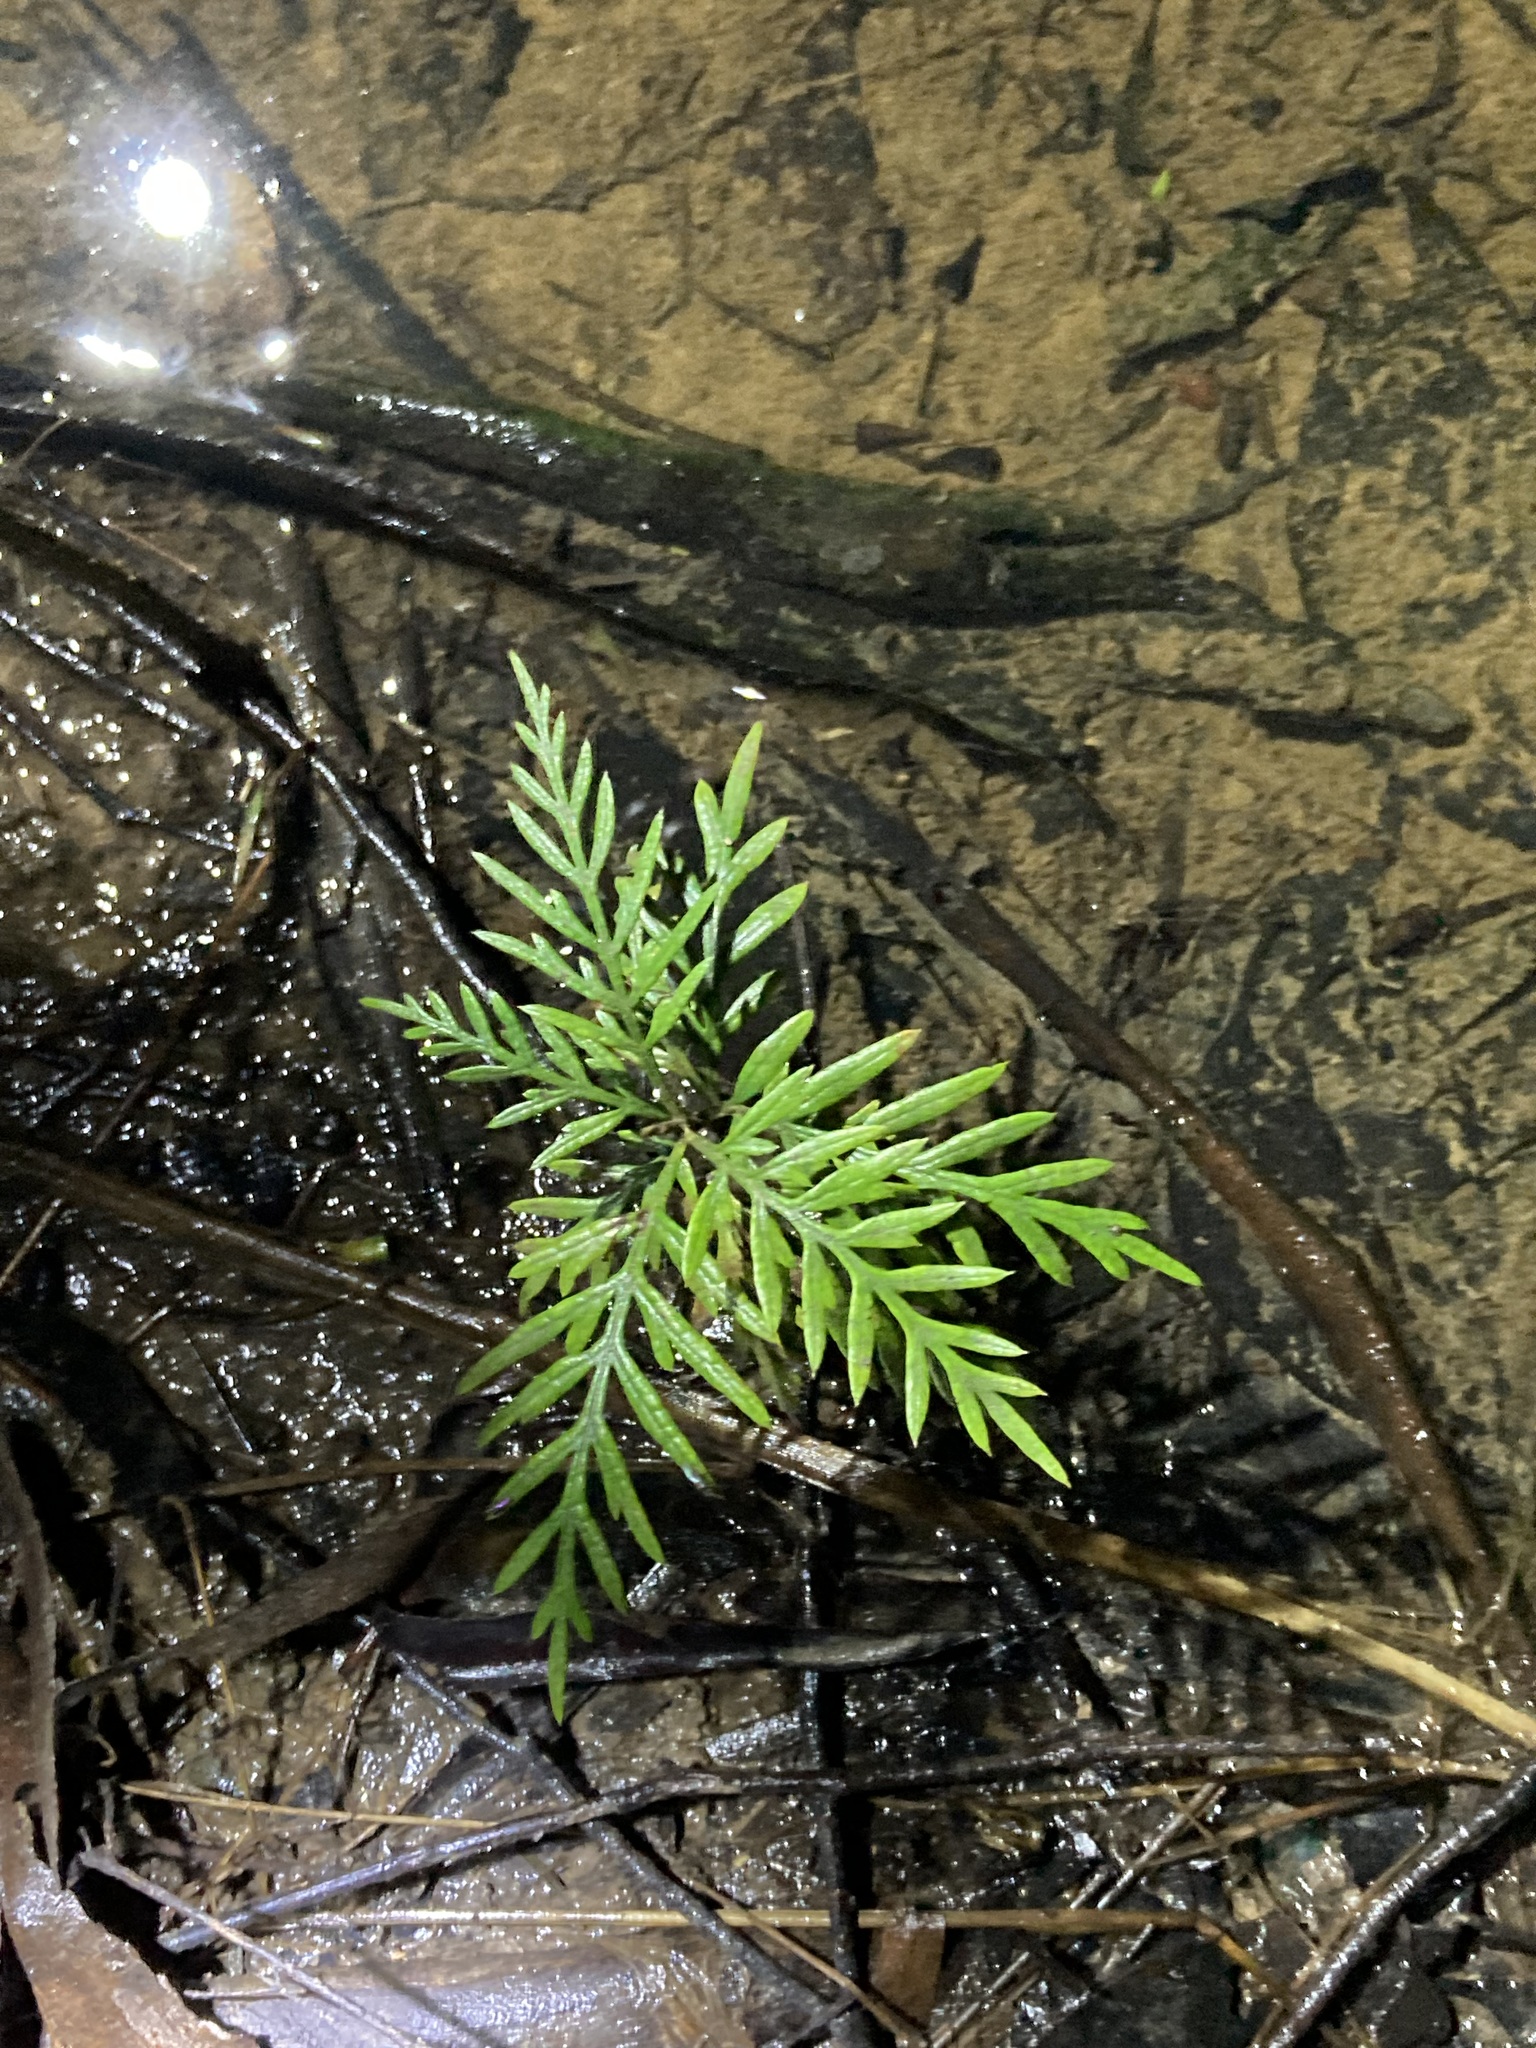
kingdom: Plantae
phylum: Tracheophyta
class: Magnoliopsida
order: Proteales
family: Proteaceae
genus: Grevillea
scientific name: Grevillea robusta
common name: Silkoak
